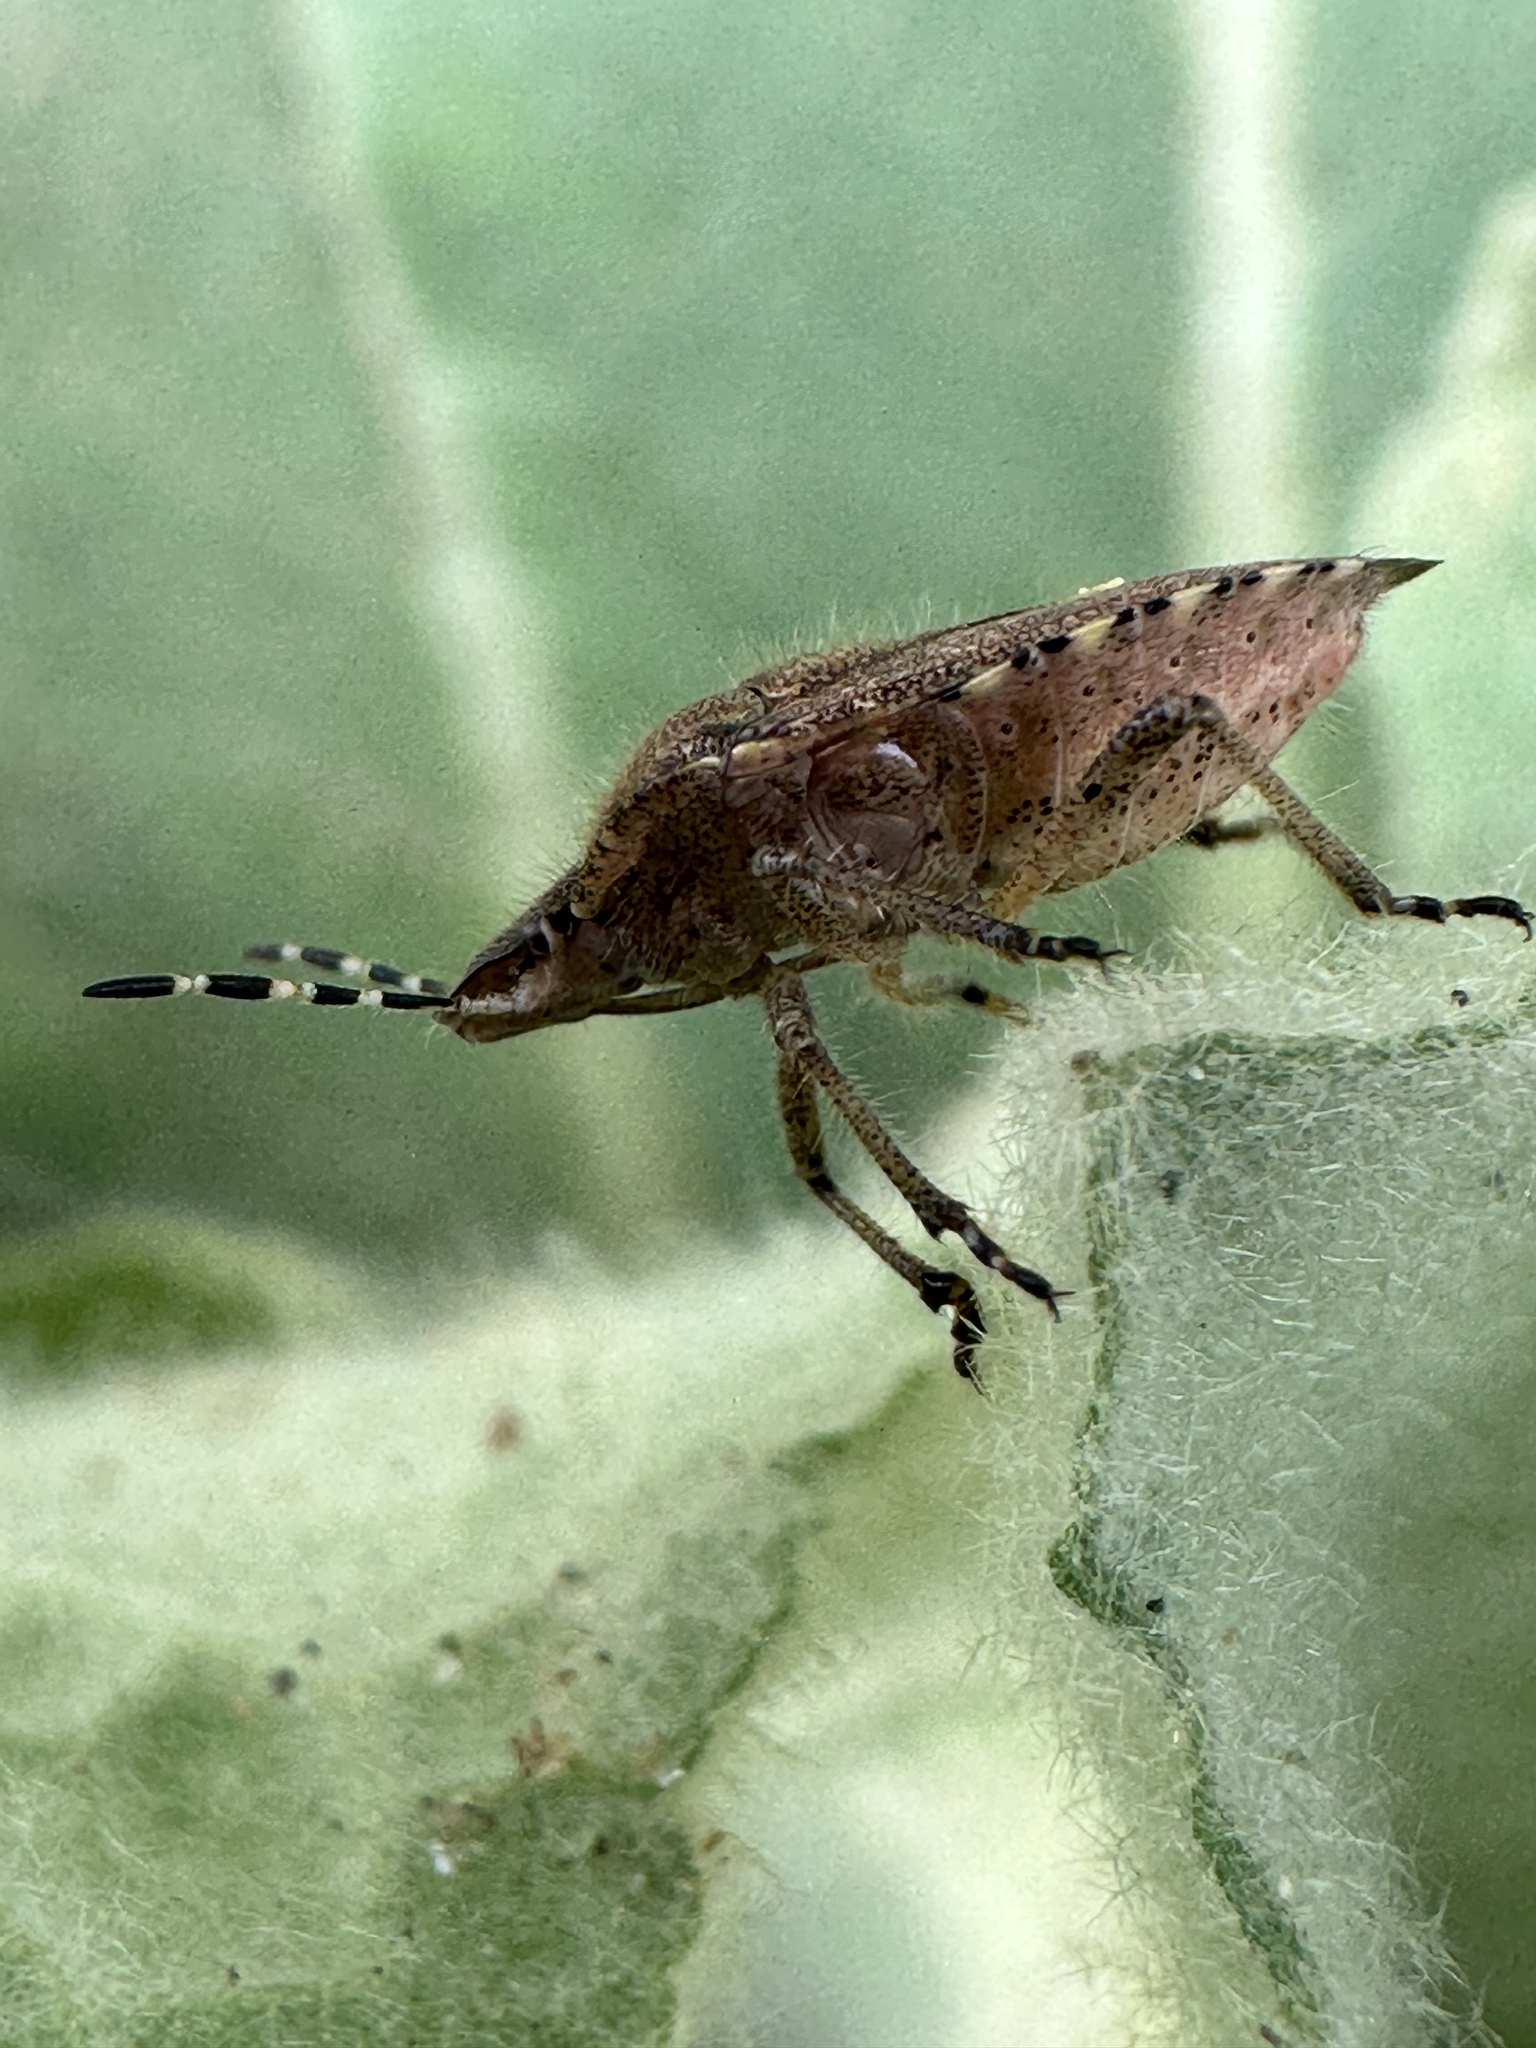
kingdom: Animalia
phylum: Arthropoda
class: Insecta
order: Hemiptera
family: Pentatomidae
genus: Dolycoris
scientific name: Dolycoris baccarum
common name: Sloe bug
